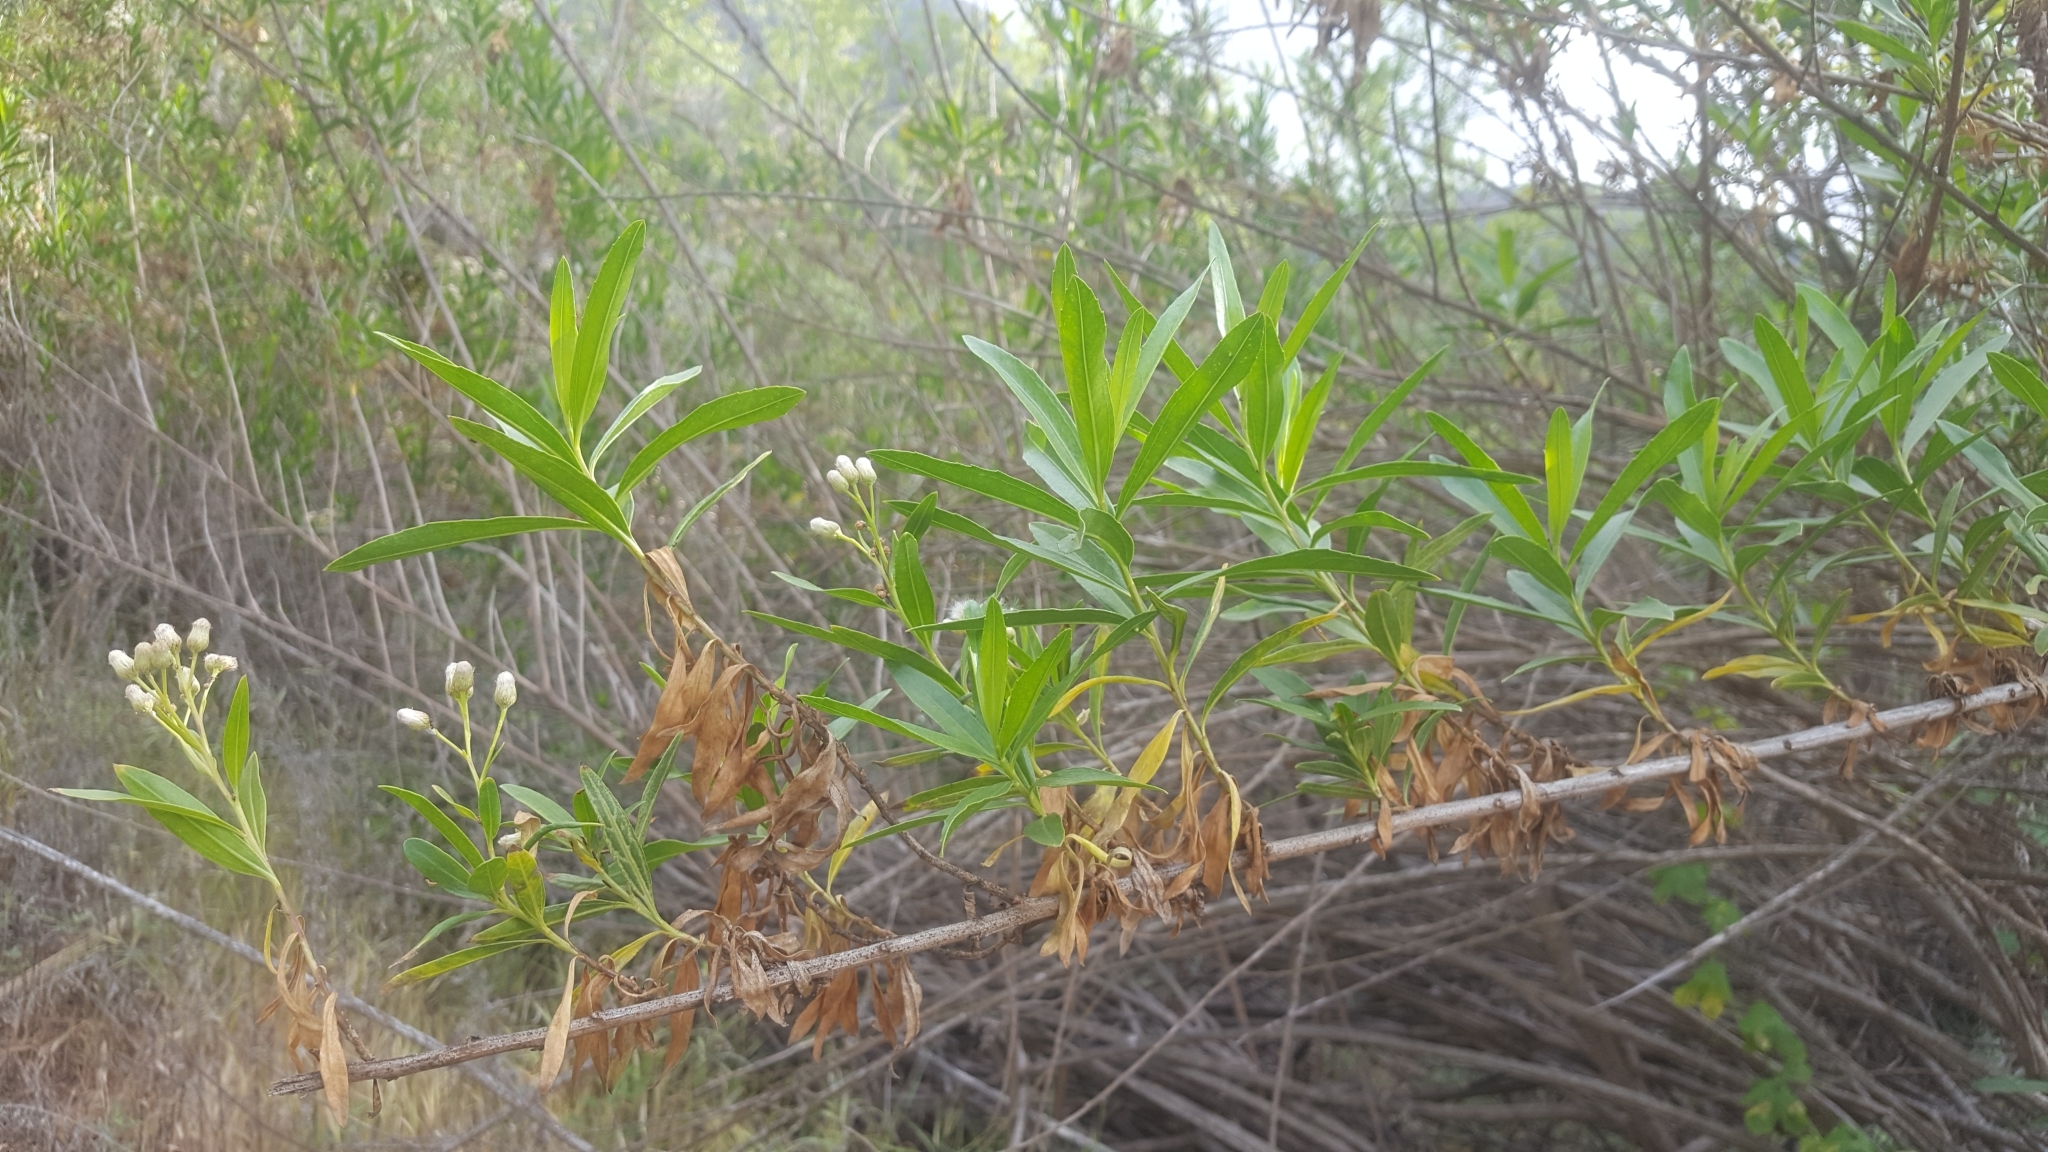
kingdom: Plantae
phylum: Tracheophyta
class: Magnoliopsida
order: Asterales
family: Asteraceae
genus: Baccharis
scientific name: Baccharis salicifolia
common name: Sticky baccharis
